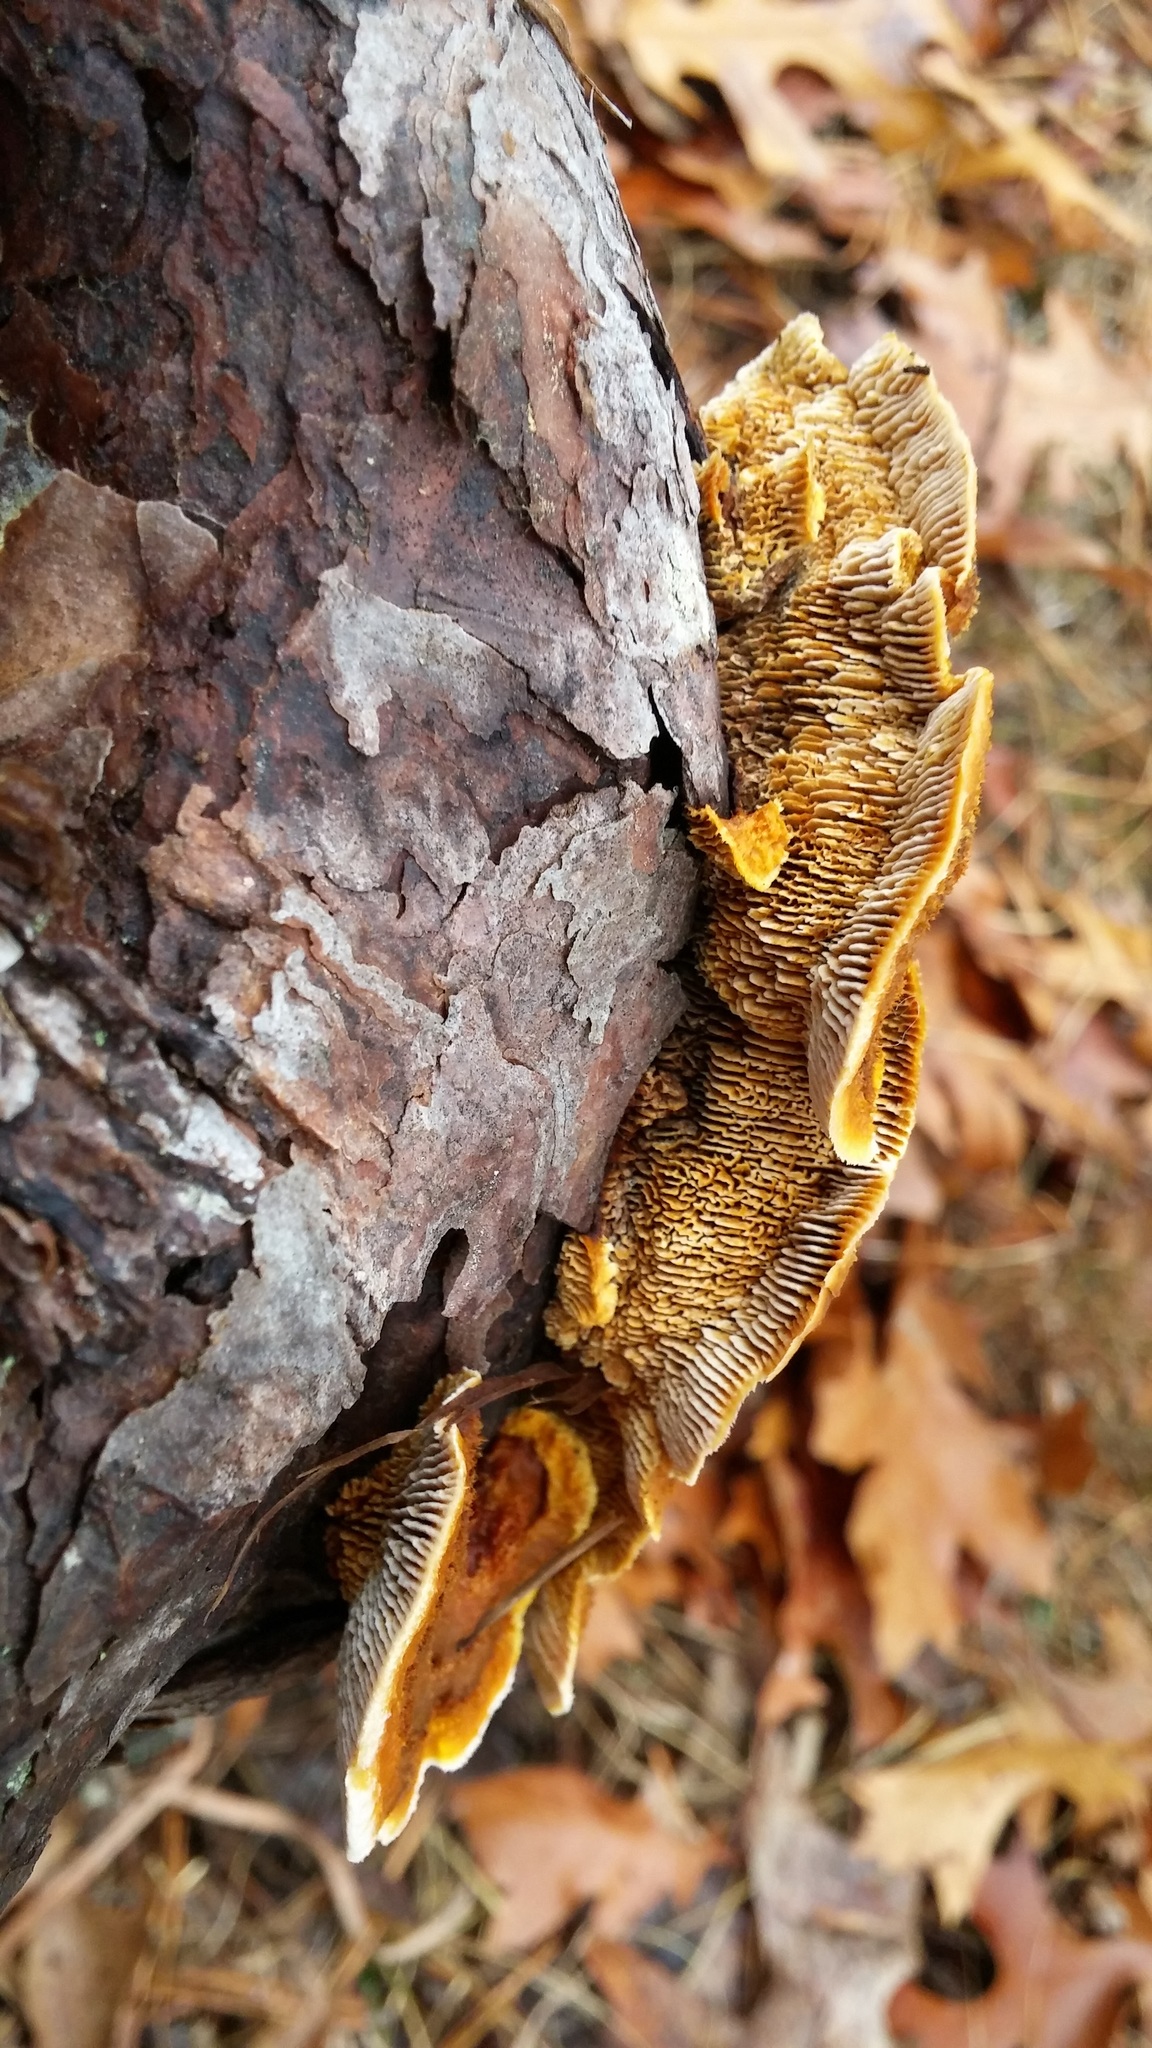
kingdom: Fungi
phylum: Basidiomycota
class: Agaricomycetes
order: Gloeophyllales
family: Gloeophyllaceae
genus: Gloeophyllum
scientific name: Gloeophyllum sepiarium
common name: Conifer mazegill
